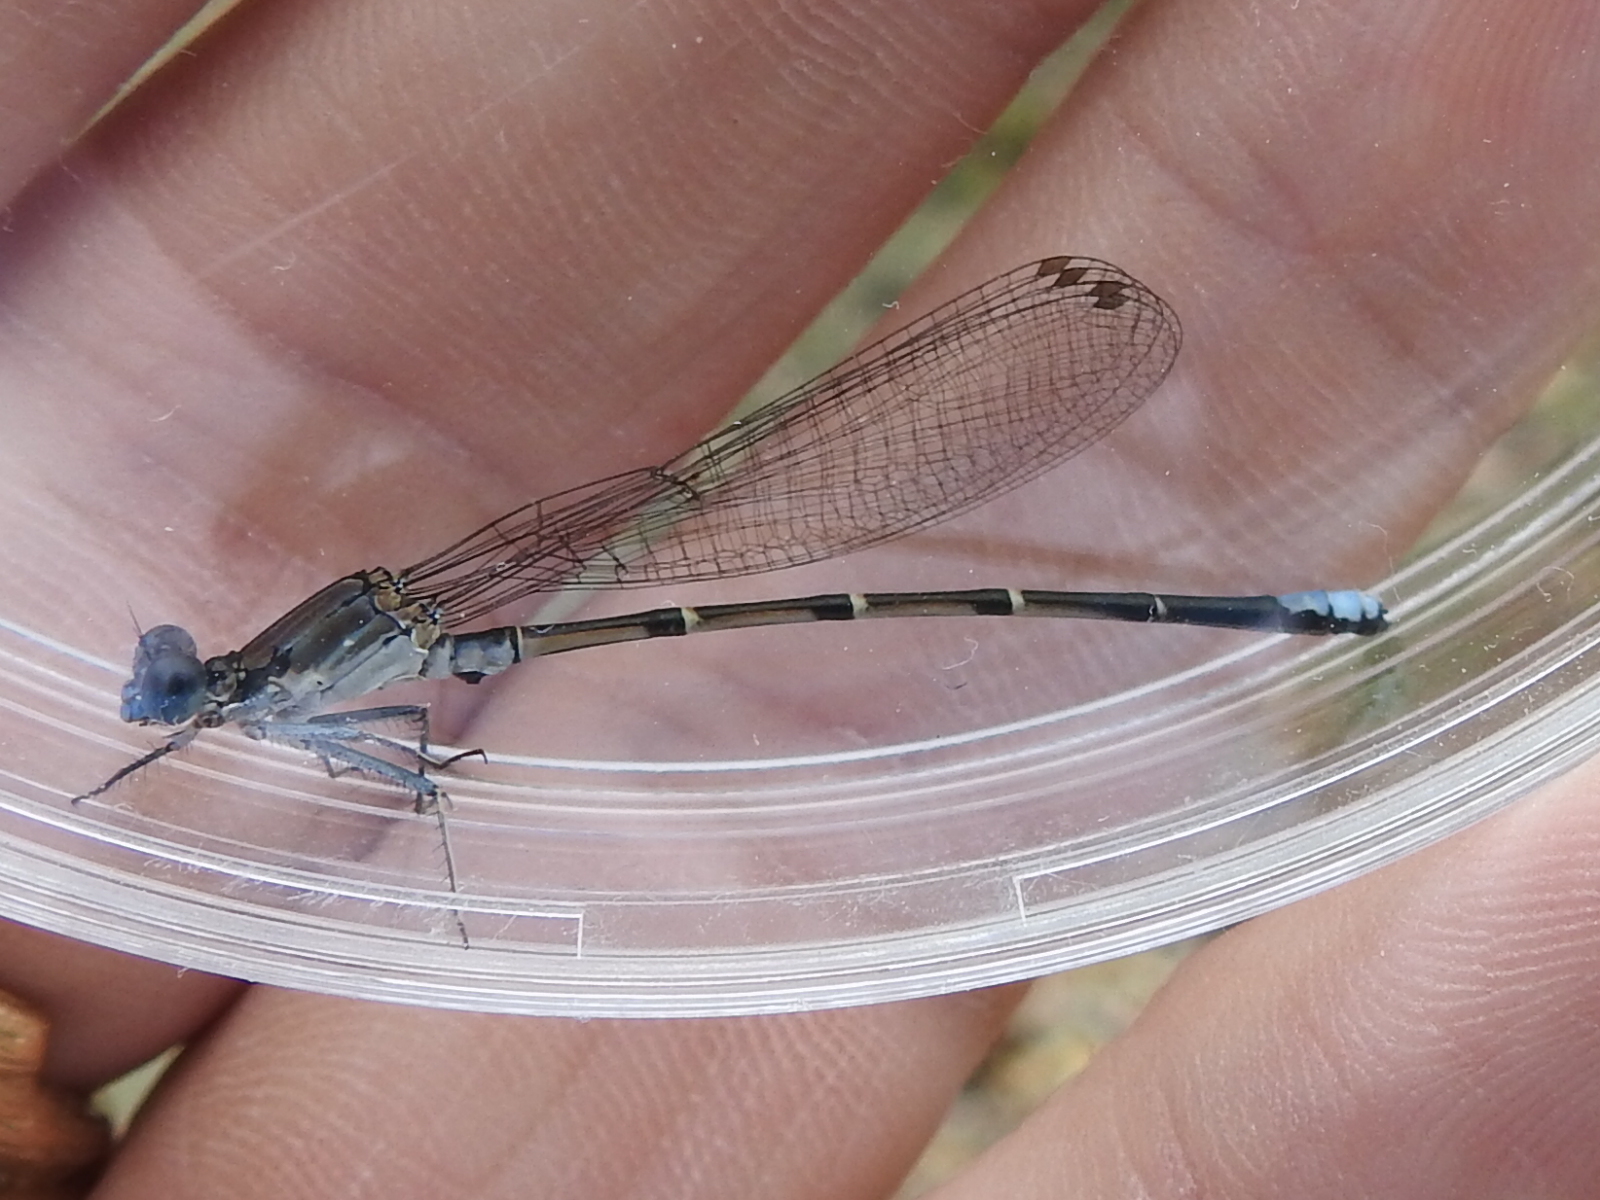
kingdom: Animalia
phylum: Arthropoda
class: Insecta
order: Odonata
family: Coenagrionidae
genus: Argia
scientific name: Argia apicalis
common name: Blue-fronted dancer
